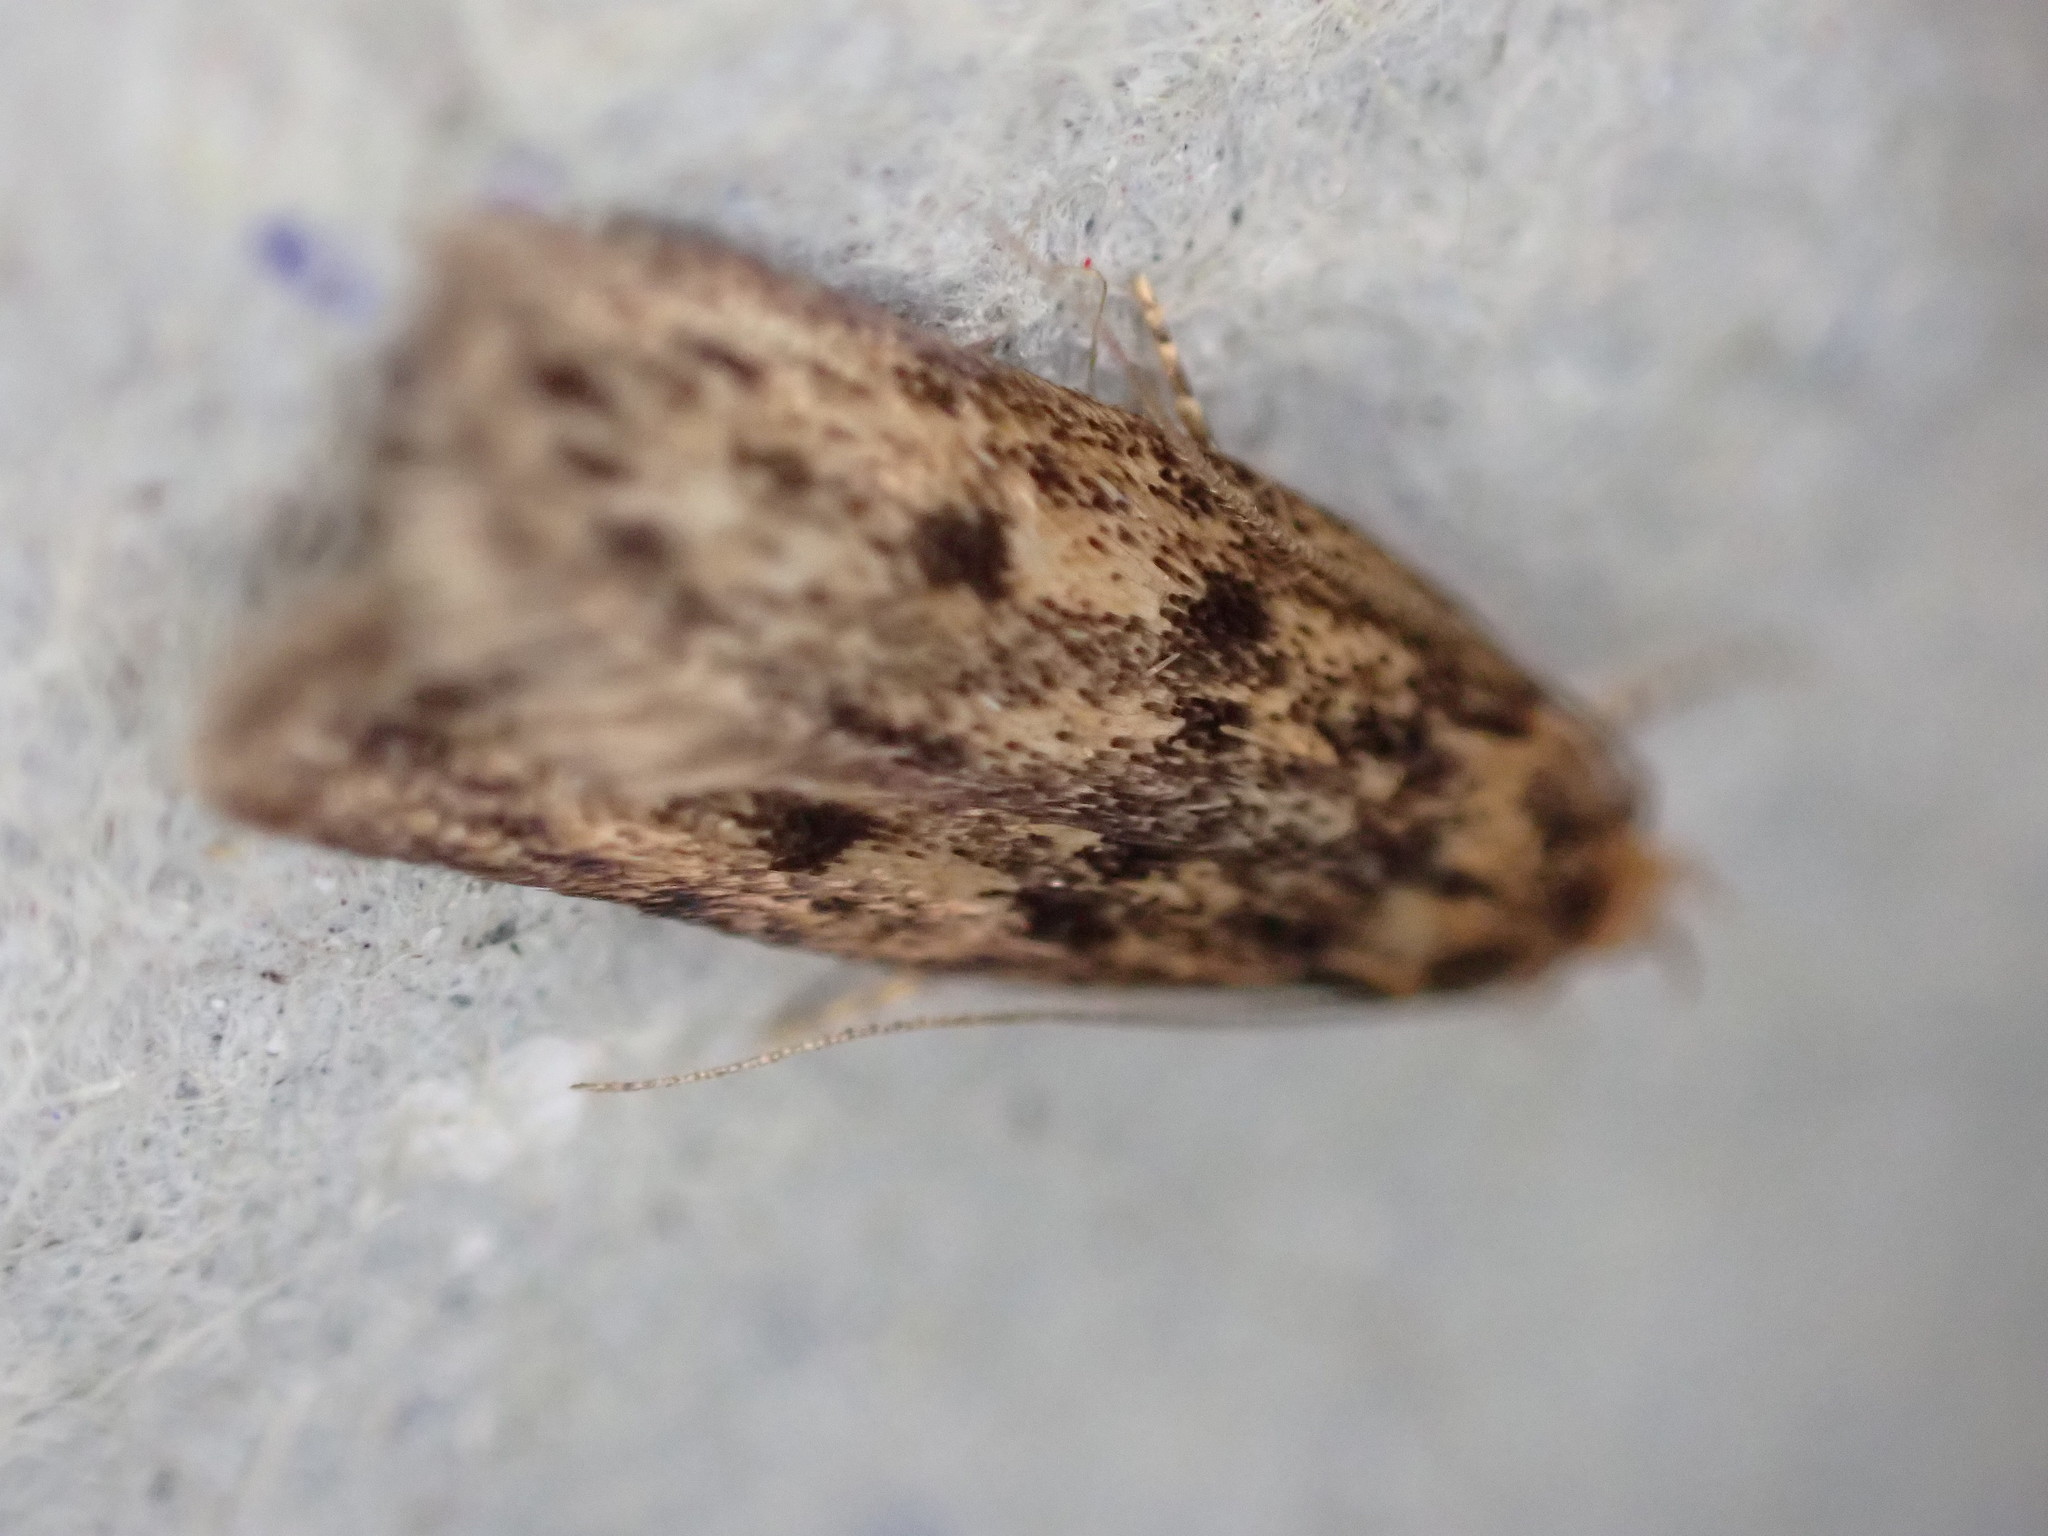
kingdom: Animalia
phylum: Arthropoda
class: Insecta
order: Lepidoptera
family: Oecophoridae
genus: Hofmannophila
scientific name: Hofmannophila pseudospretella
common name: Brown house moth
